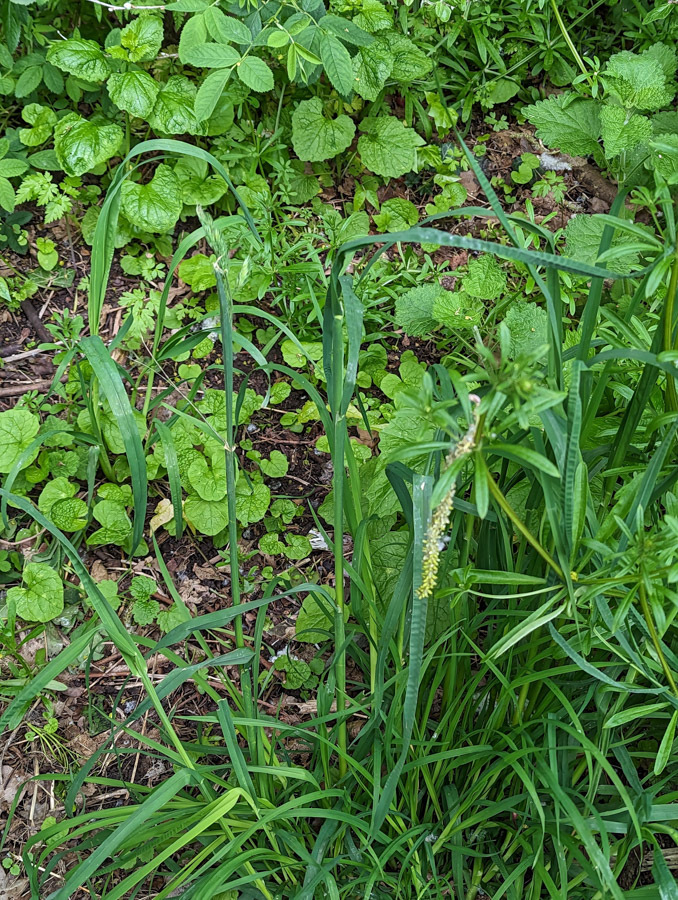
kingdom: Plantae
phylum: Tracheophyta
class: Liliopsida
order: Poales
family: Poaceae
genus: Dactylis
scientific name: Dactylis glomerata
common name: Orchardgrass
